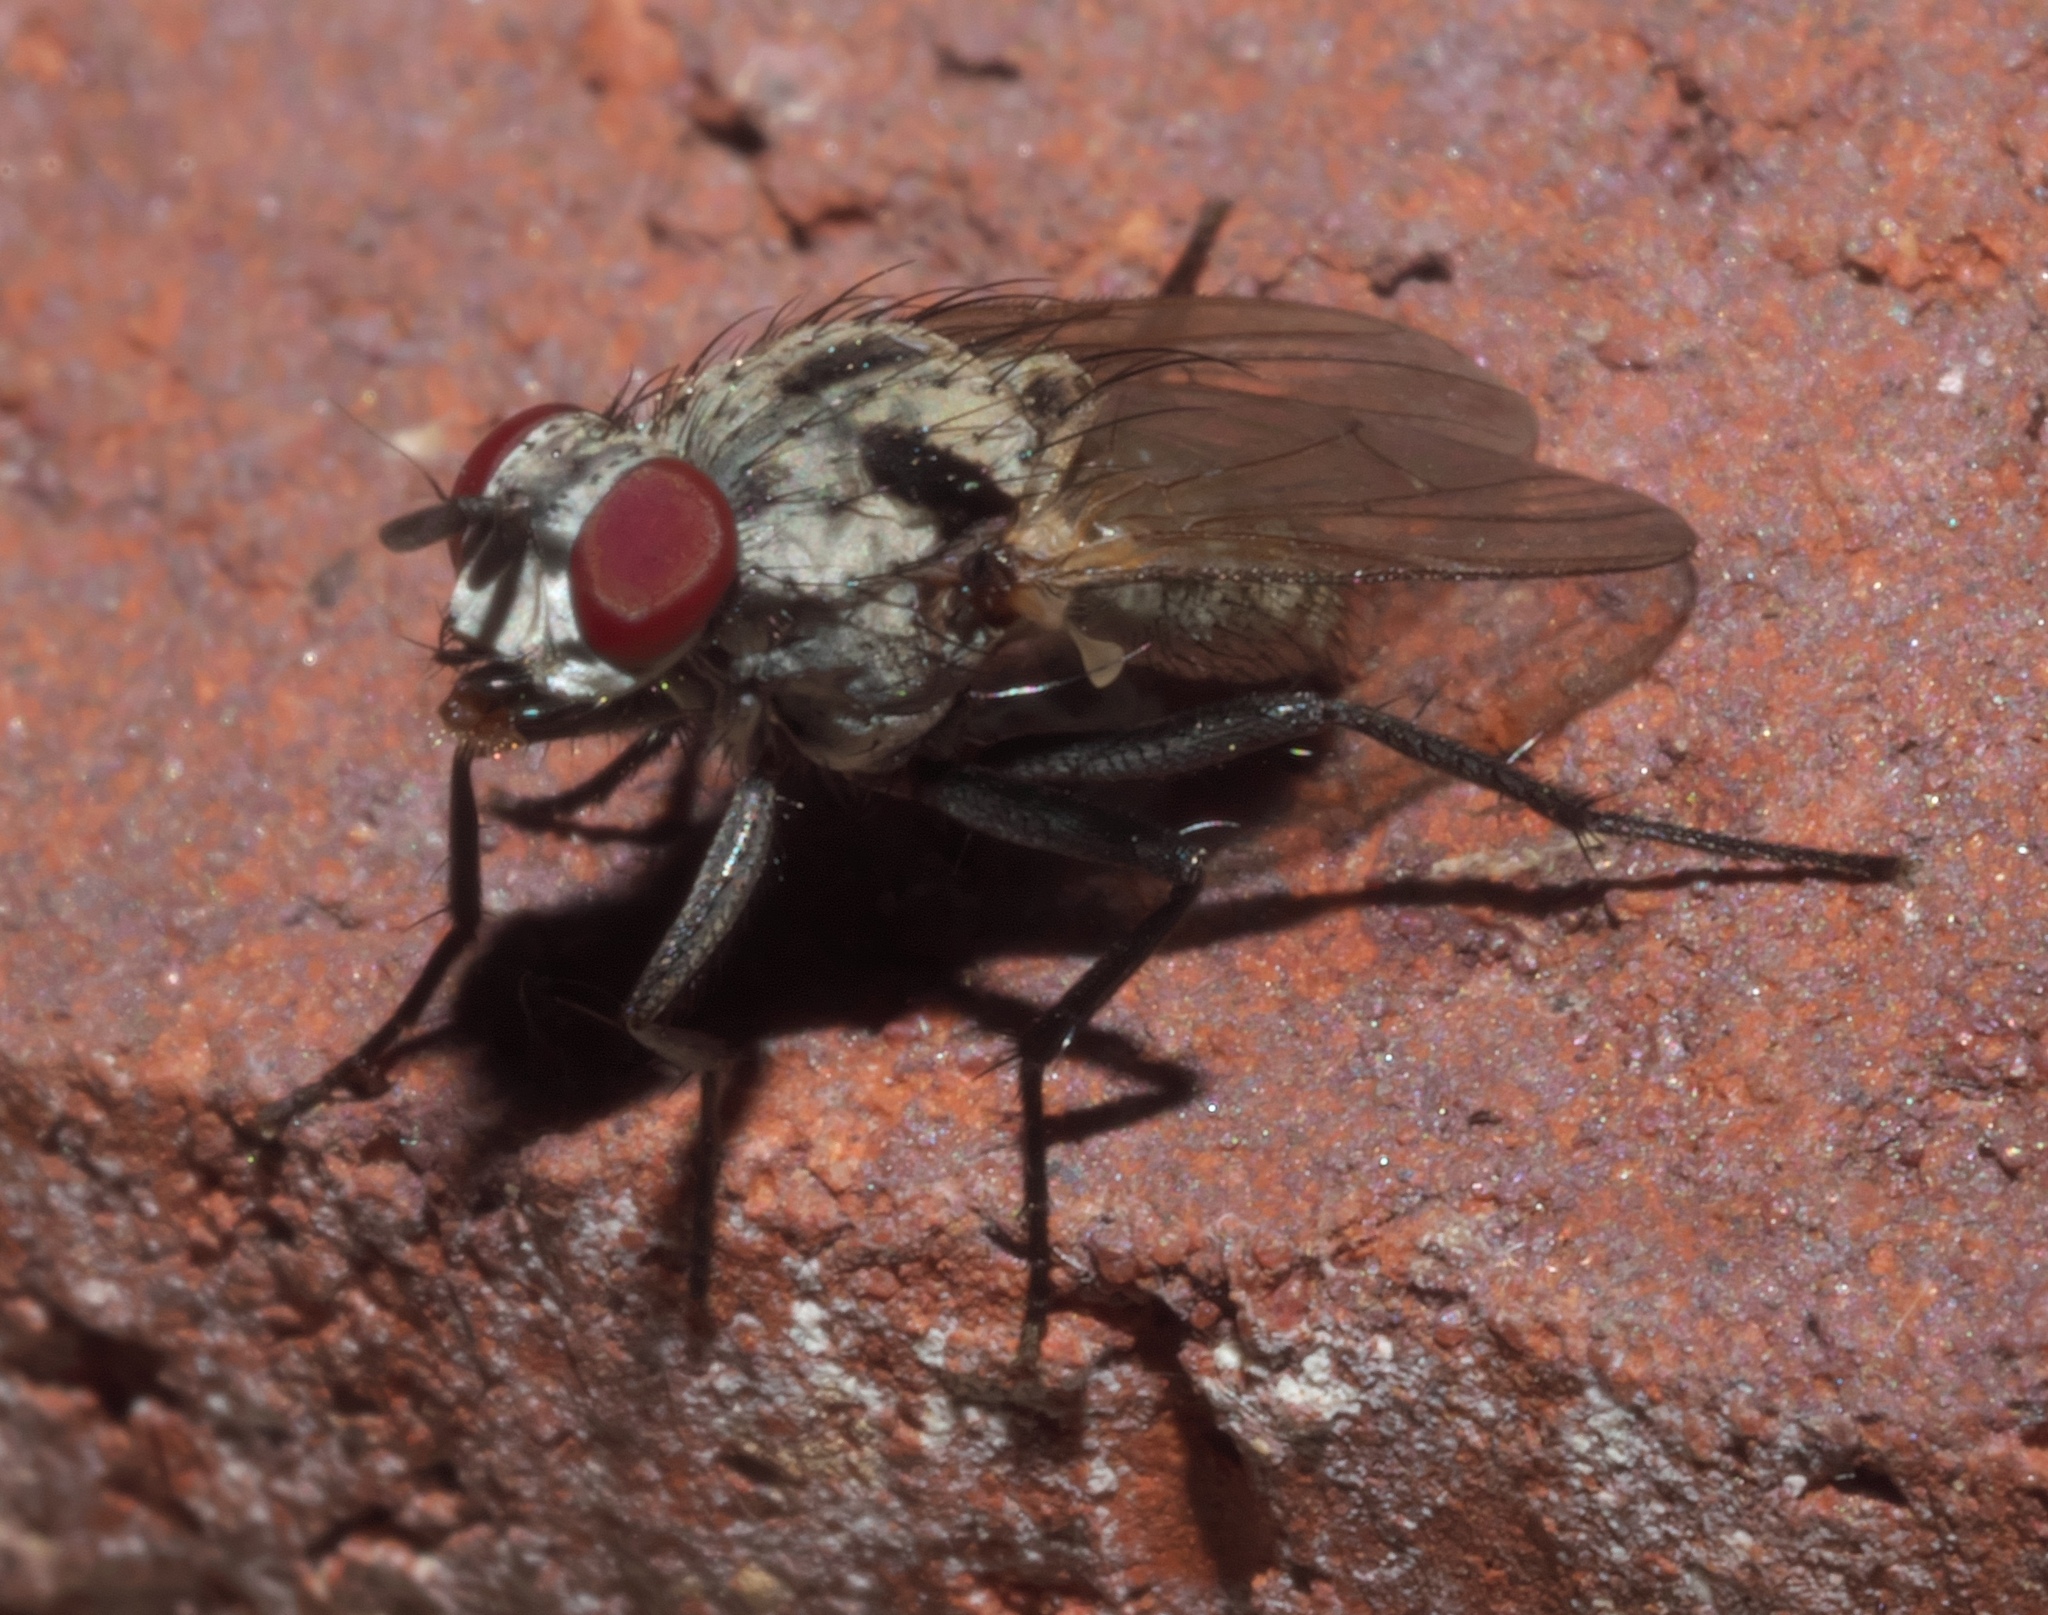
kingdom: Animalia
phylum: Arthropoda
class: Insecta
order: Diptera
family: Anthomyiidae
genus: Anthomyia
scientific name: Anthomyia procellaris
